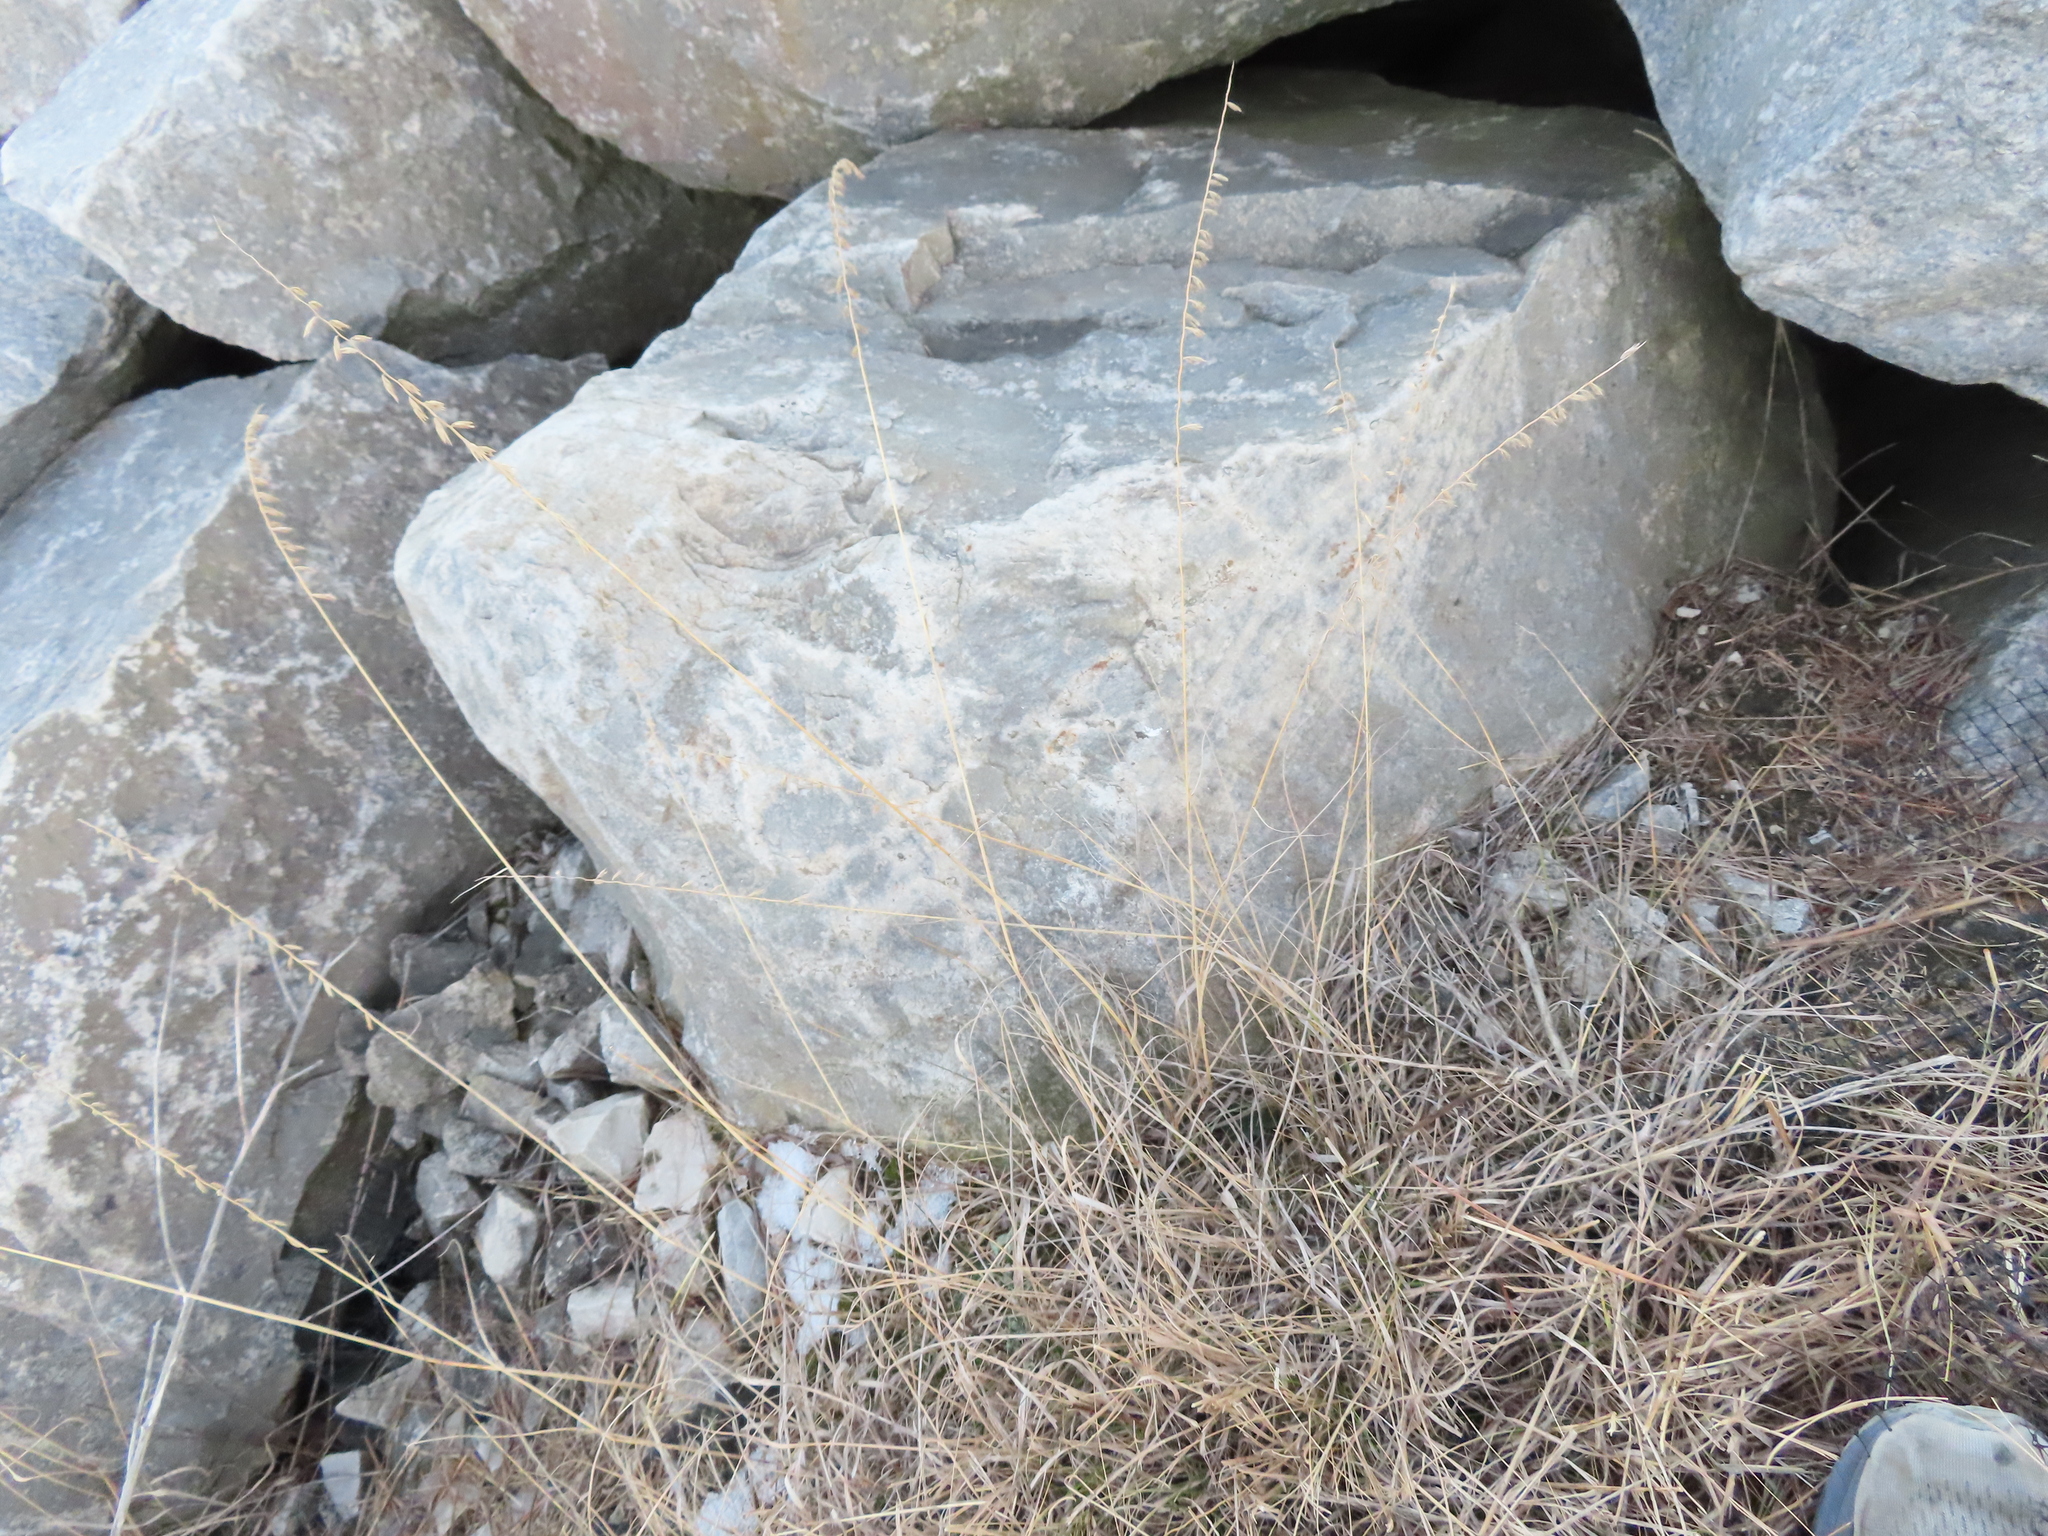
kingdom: Plantae
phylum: Tracheophyta
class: Liliopsida
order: Poales
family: Poaceae
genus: Bouteloua
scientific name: Bouteloua curtipendula
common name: Side-oats grama
